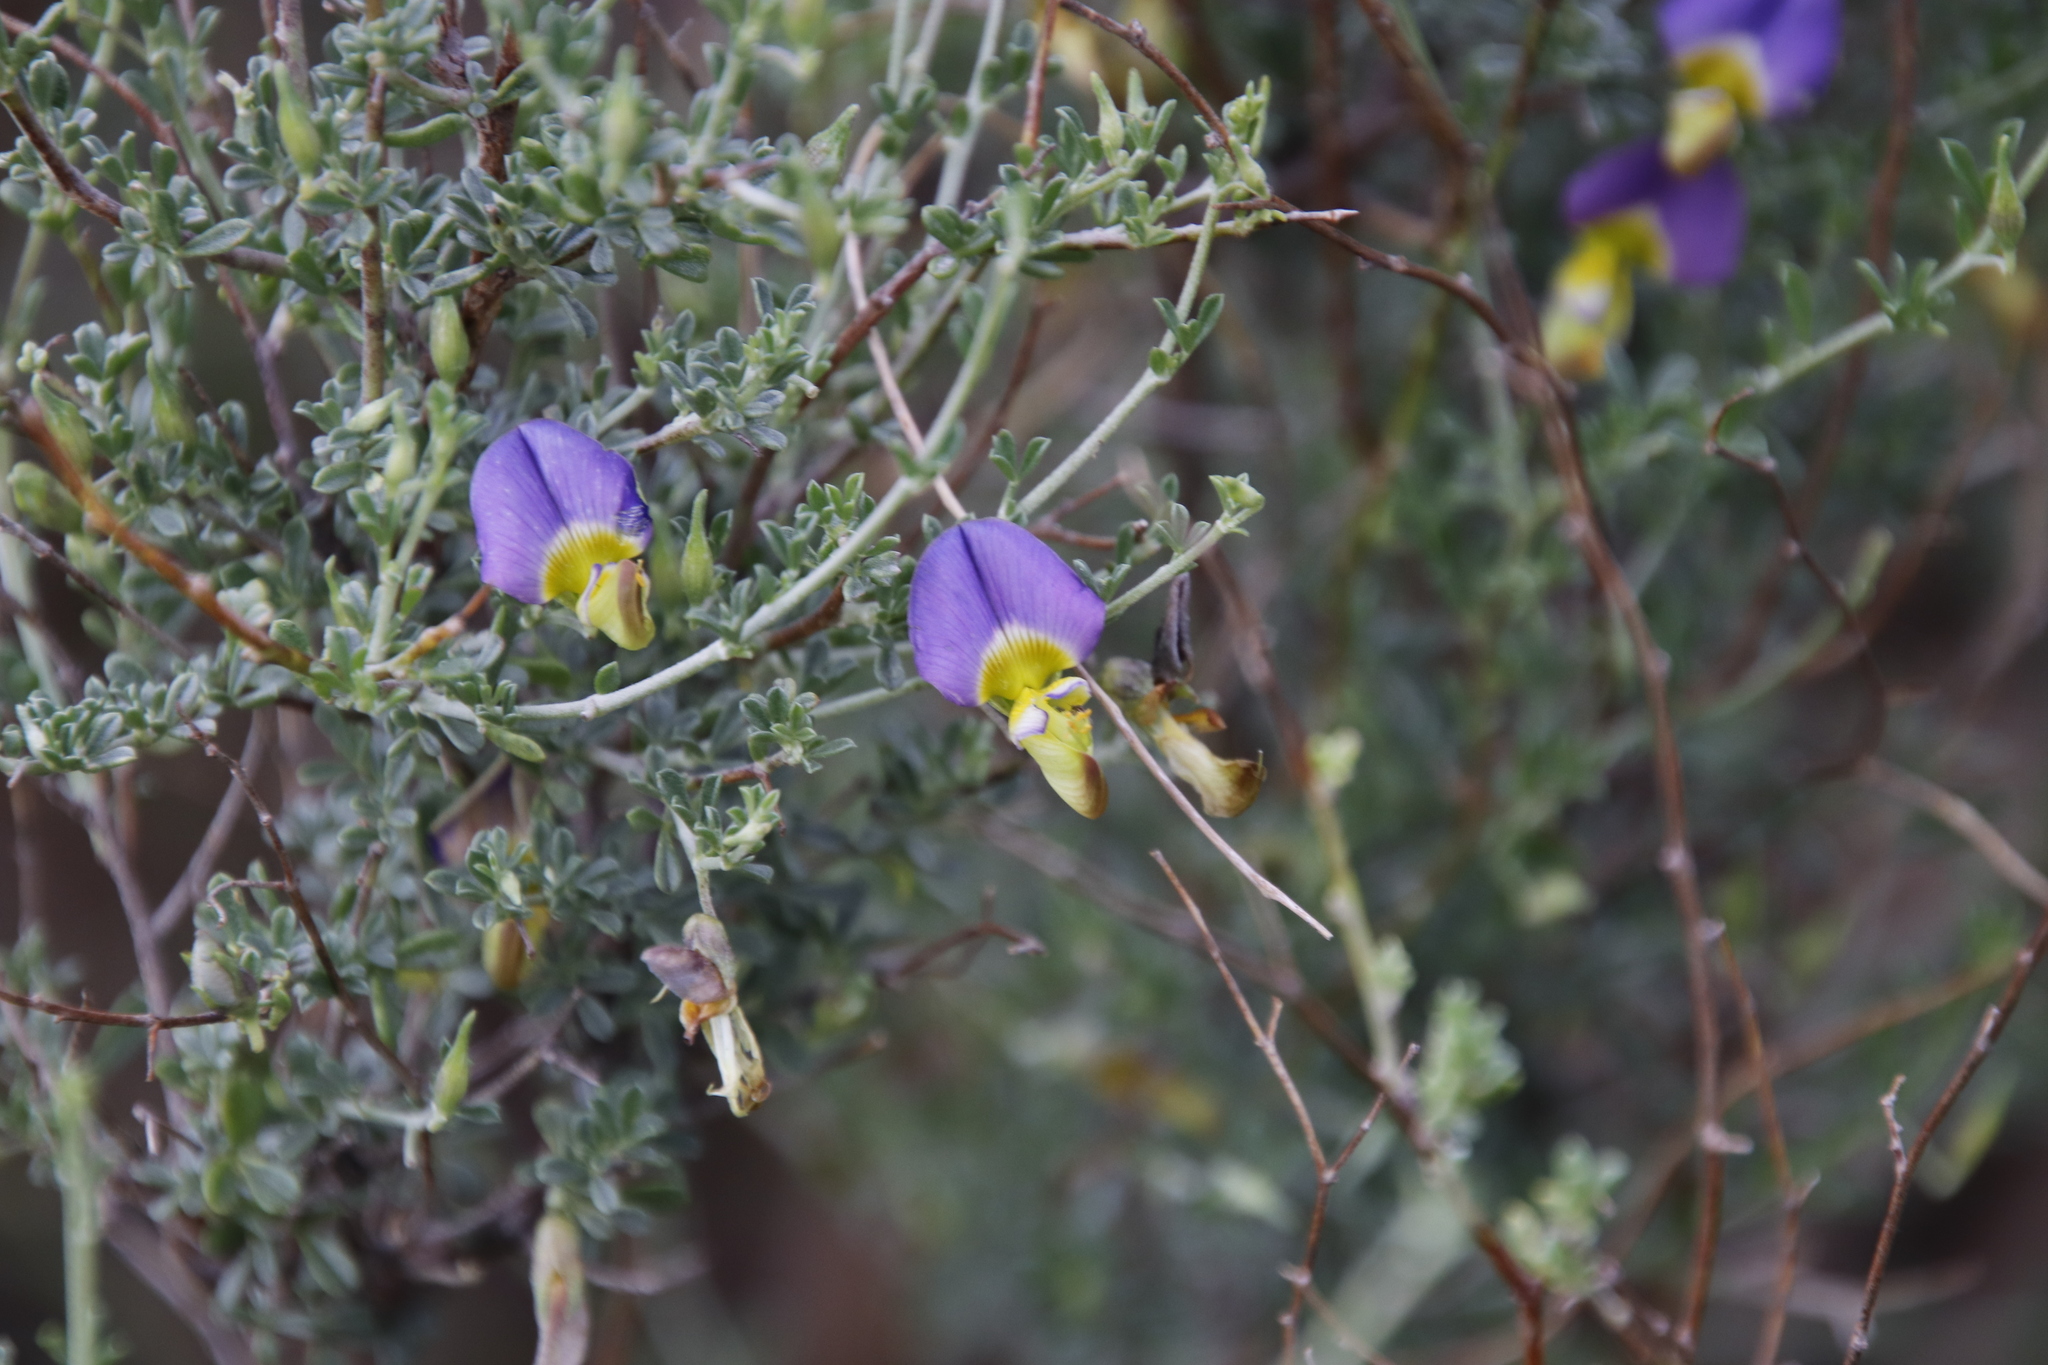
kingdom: Plantae
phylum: Tracheophyta
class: Magnoliopsida
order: Fabales
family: Fabaceae
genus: Lotononis
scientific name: Lotononis sericophylla
